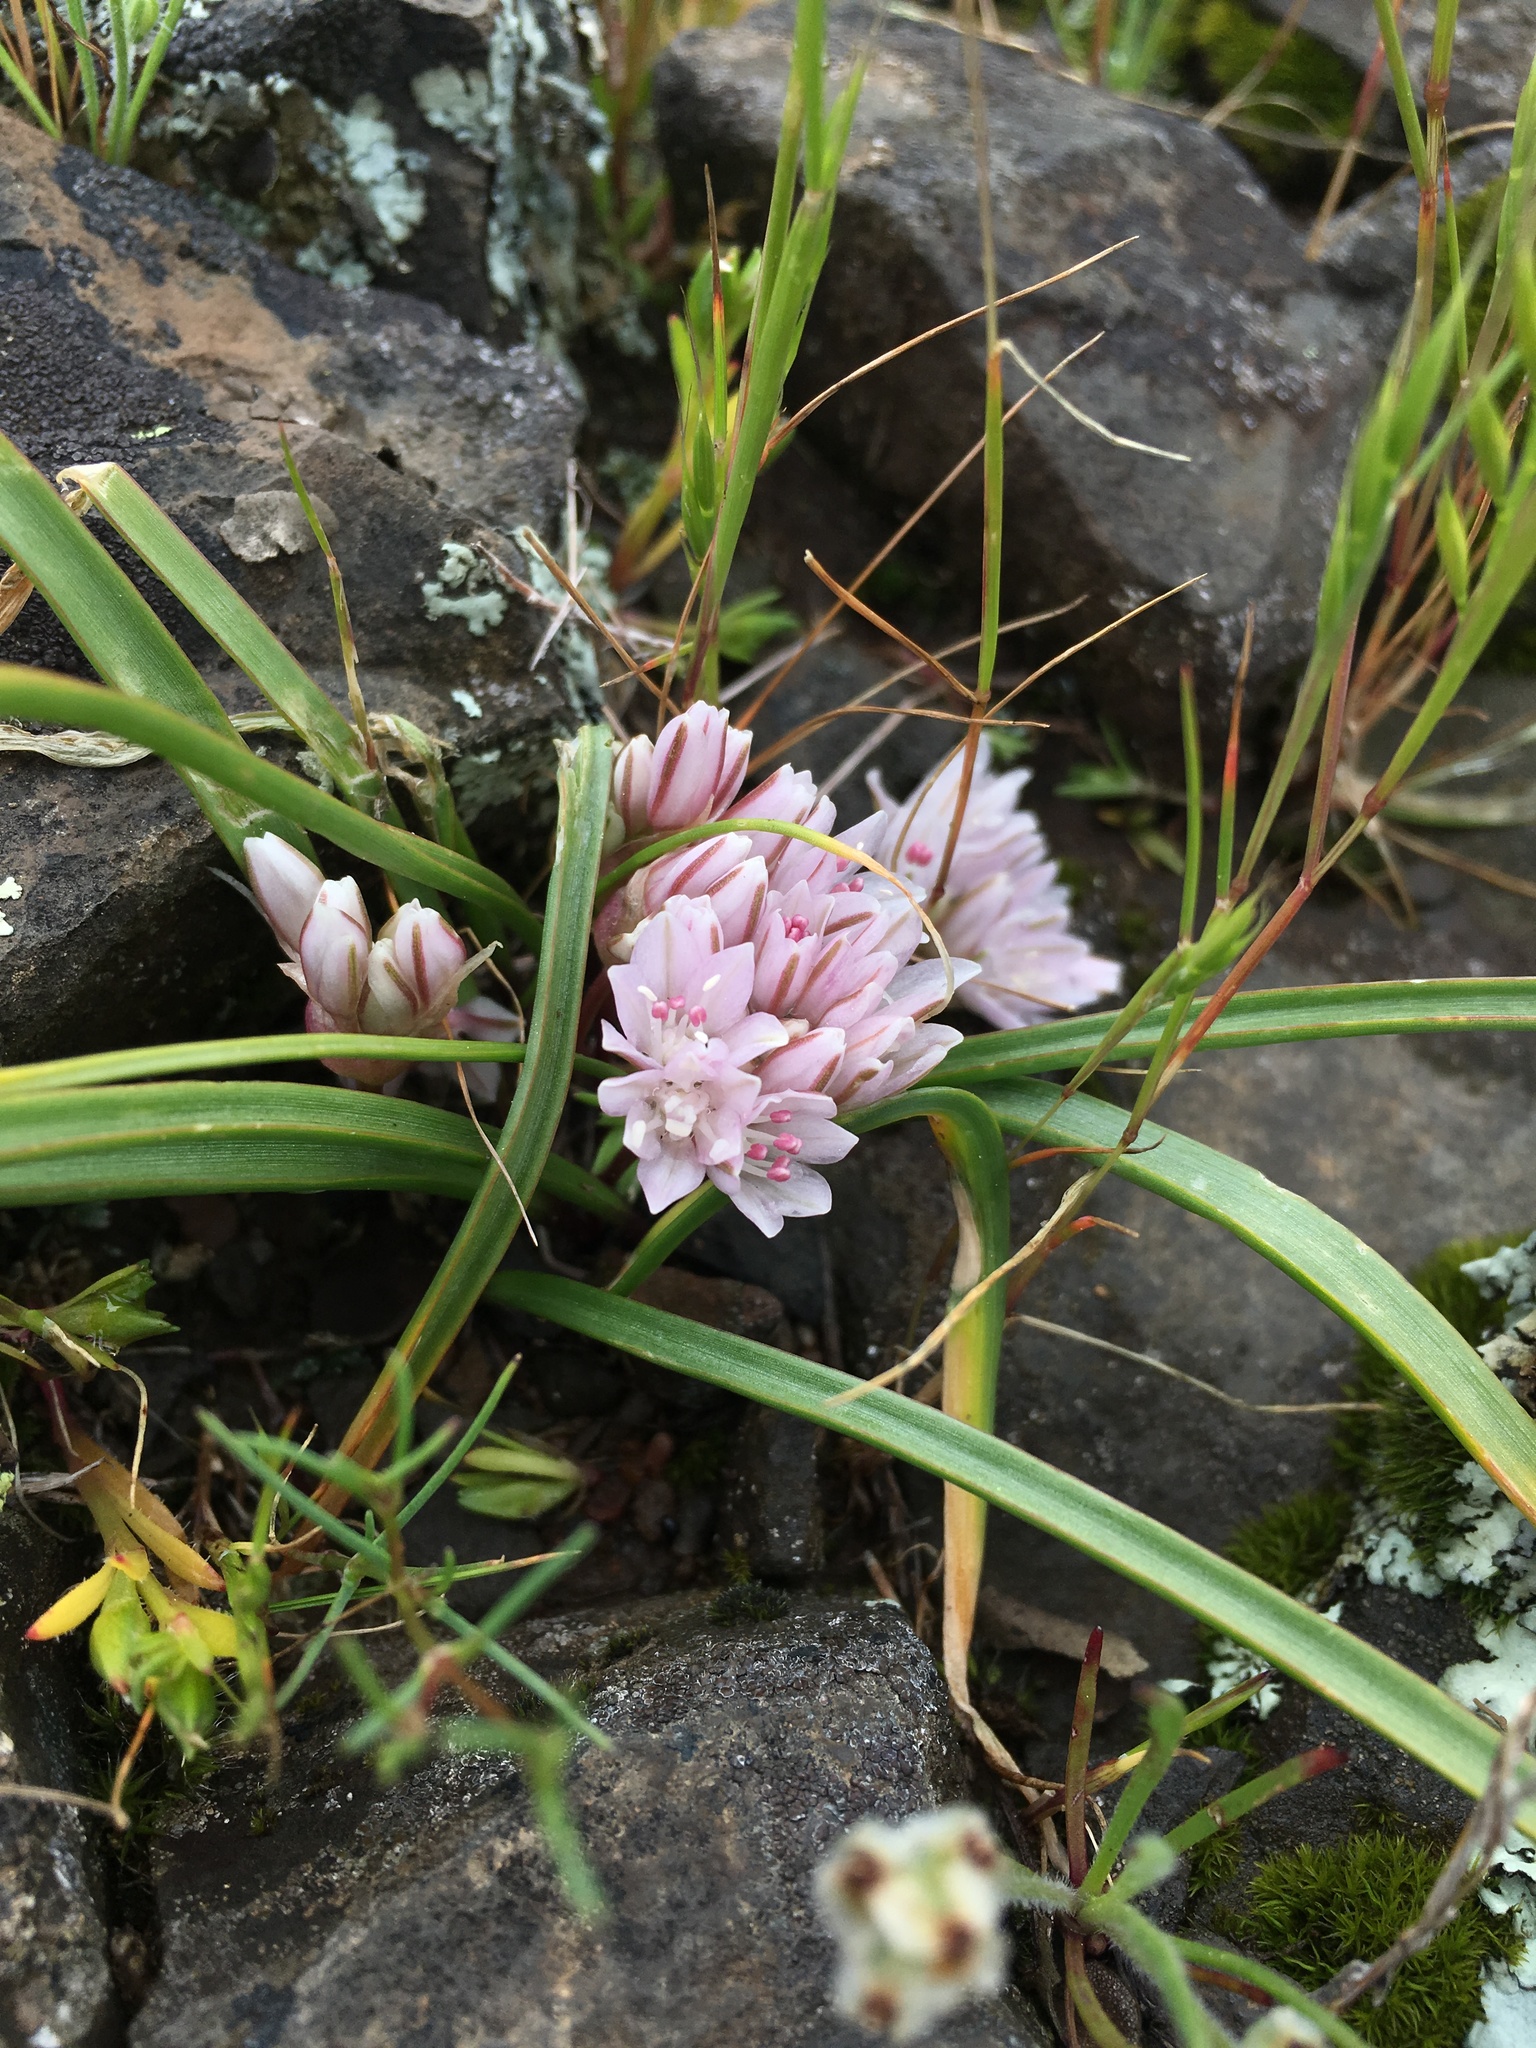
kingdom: Plantae
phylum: Tracheophyta
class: Liliopsida
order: Asparagales
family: Amaryllidaceae
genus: Allium
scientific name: Allium cratericola
